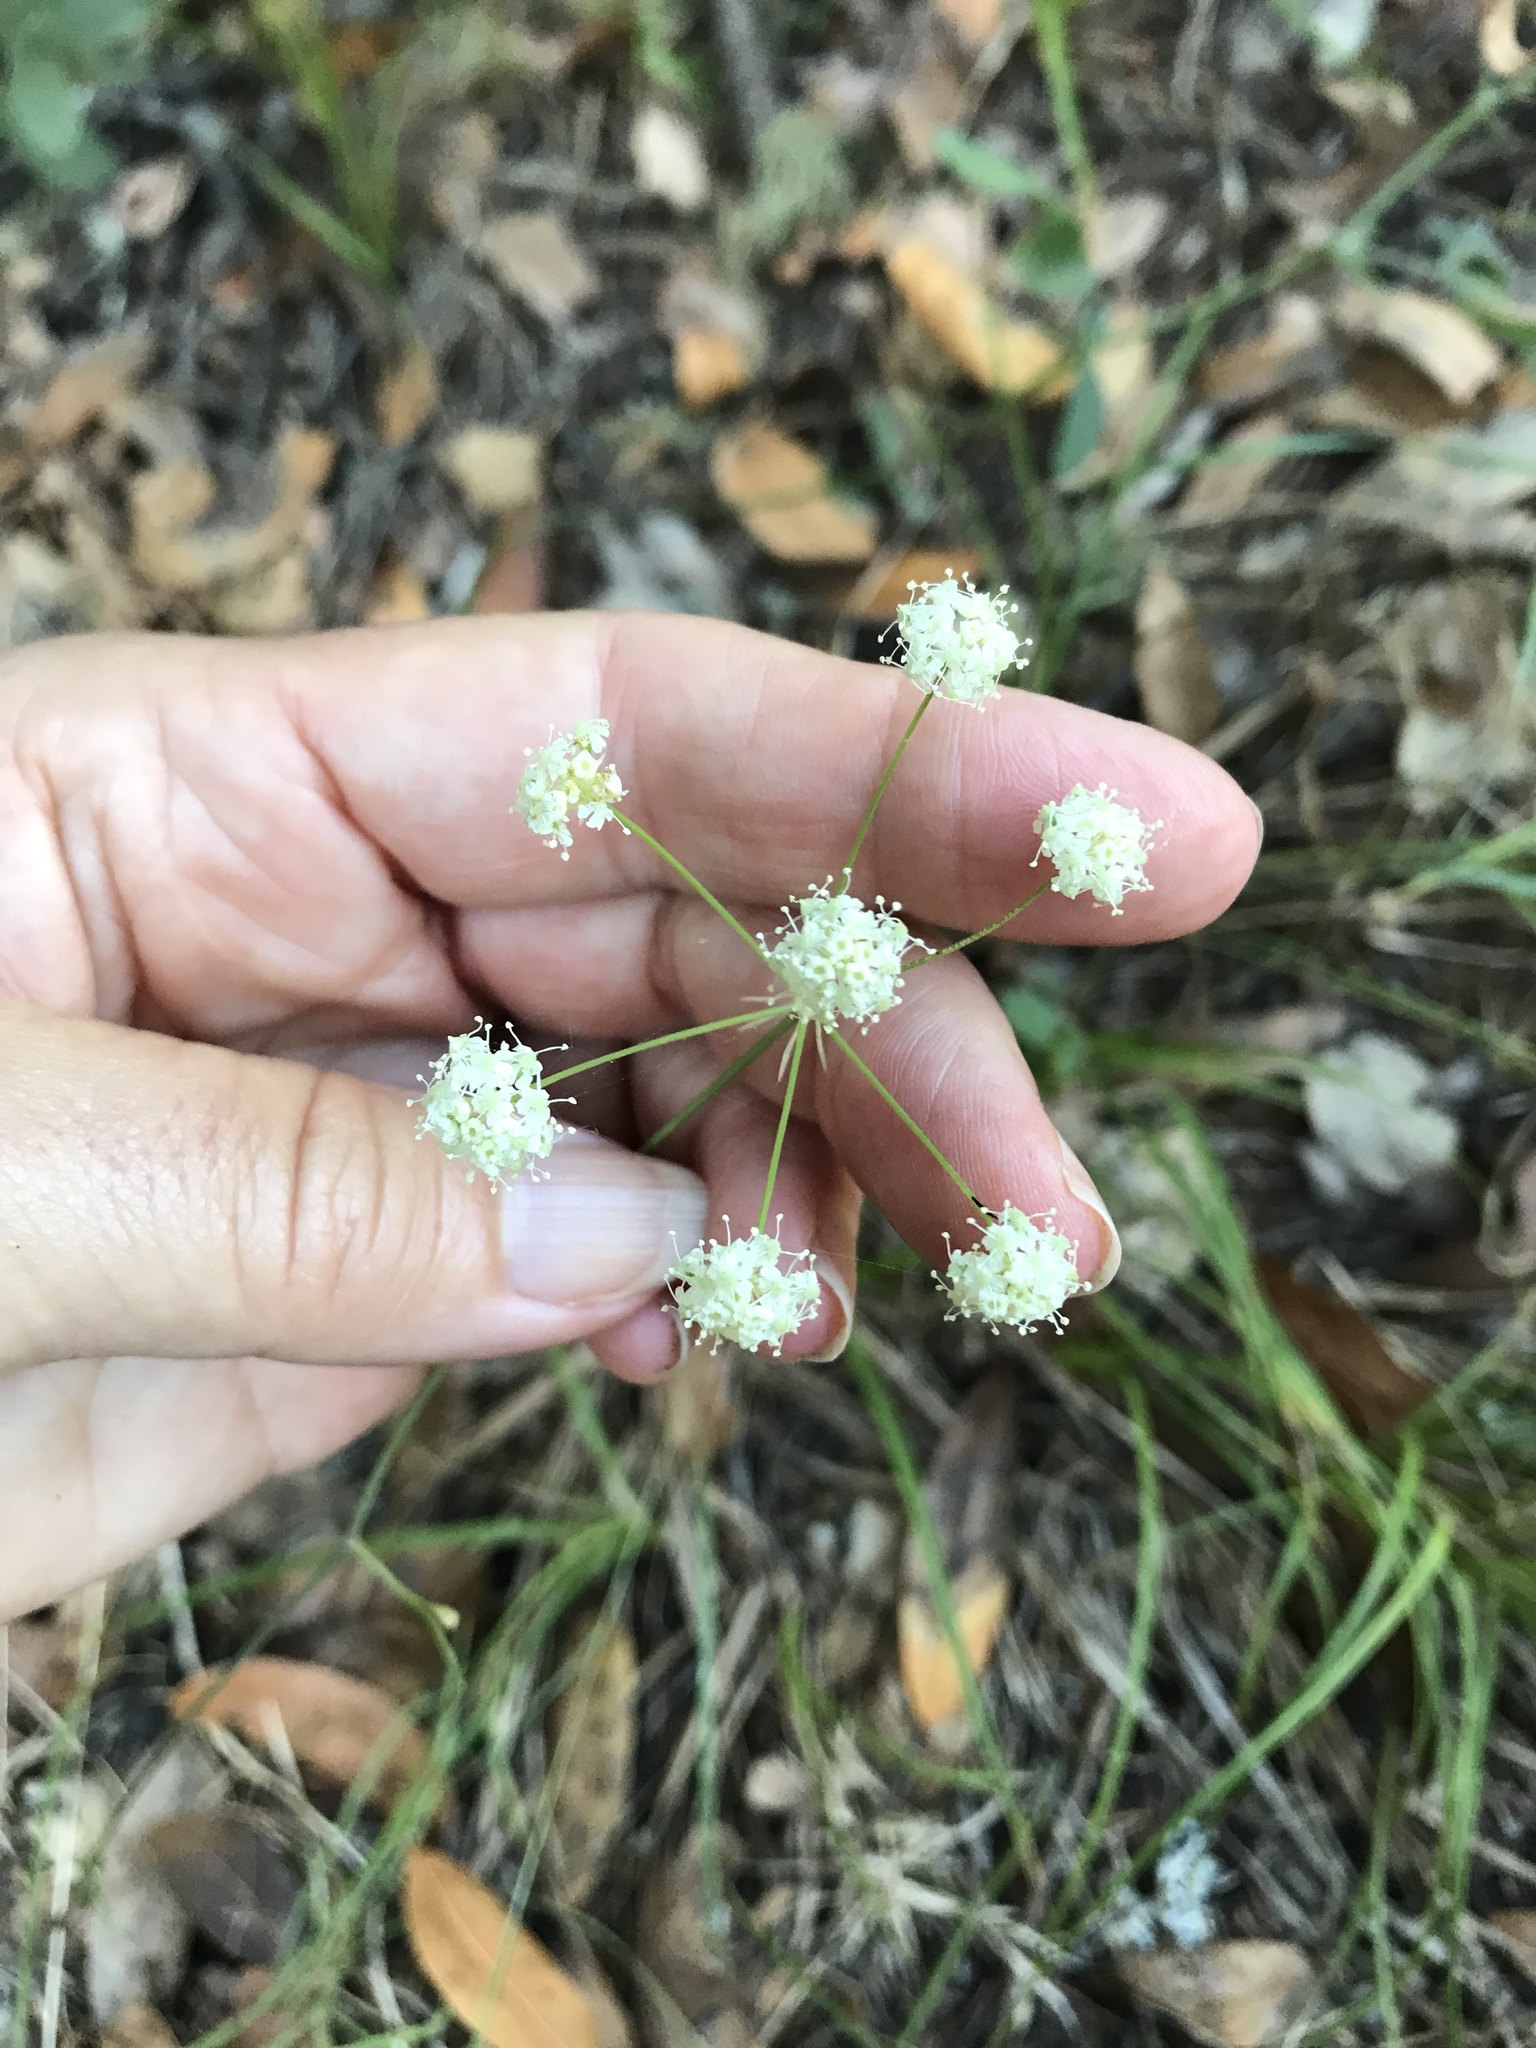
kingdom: Plantae
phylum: Tracheophyta
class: Magnoliopsida
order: Apiales
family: Apiaceae
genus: Perideridia
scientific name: Perideridia kelloggii
